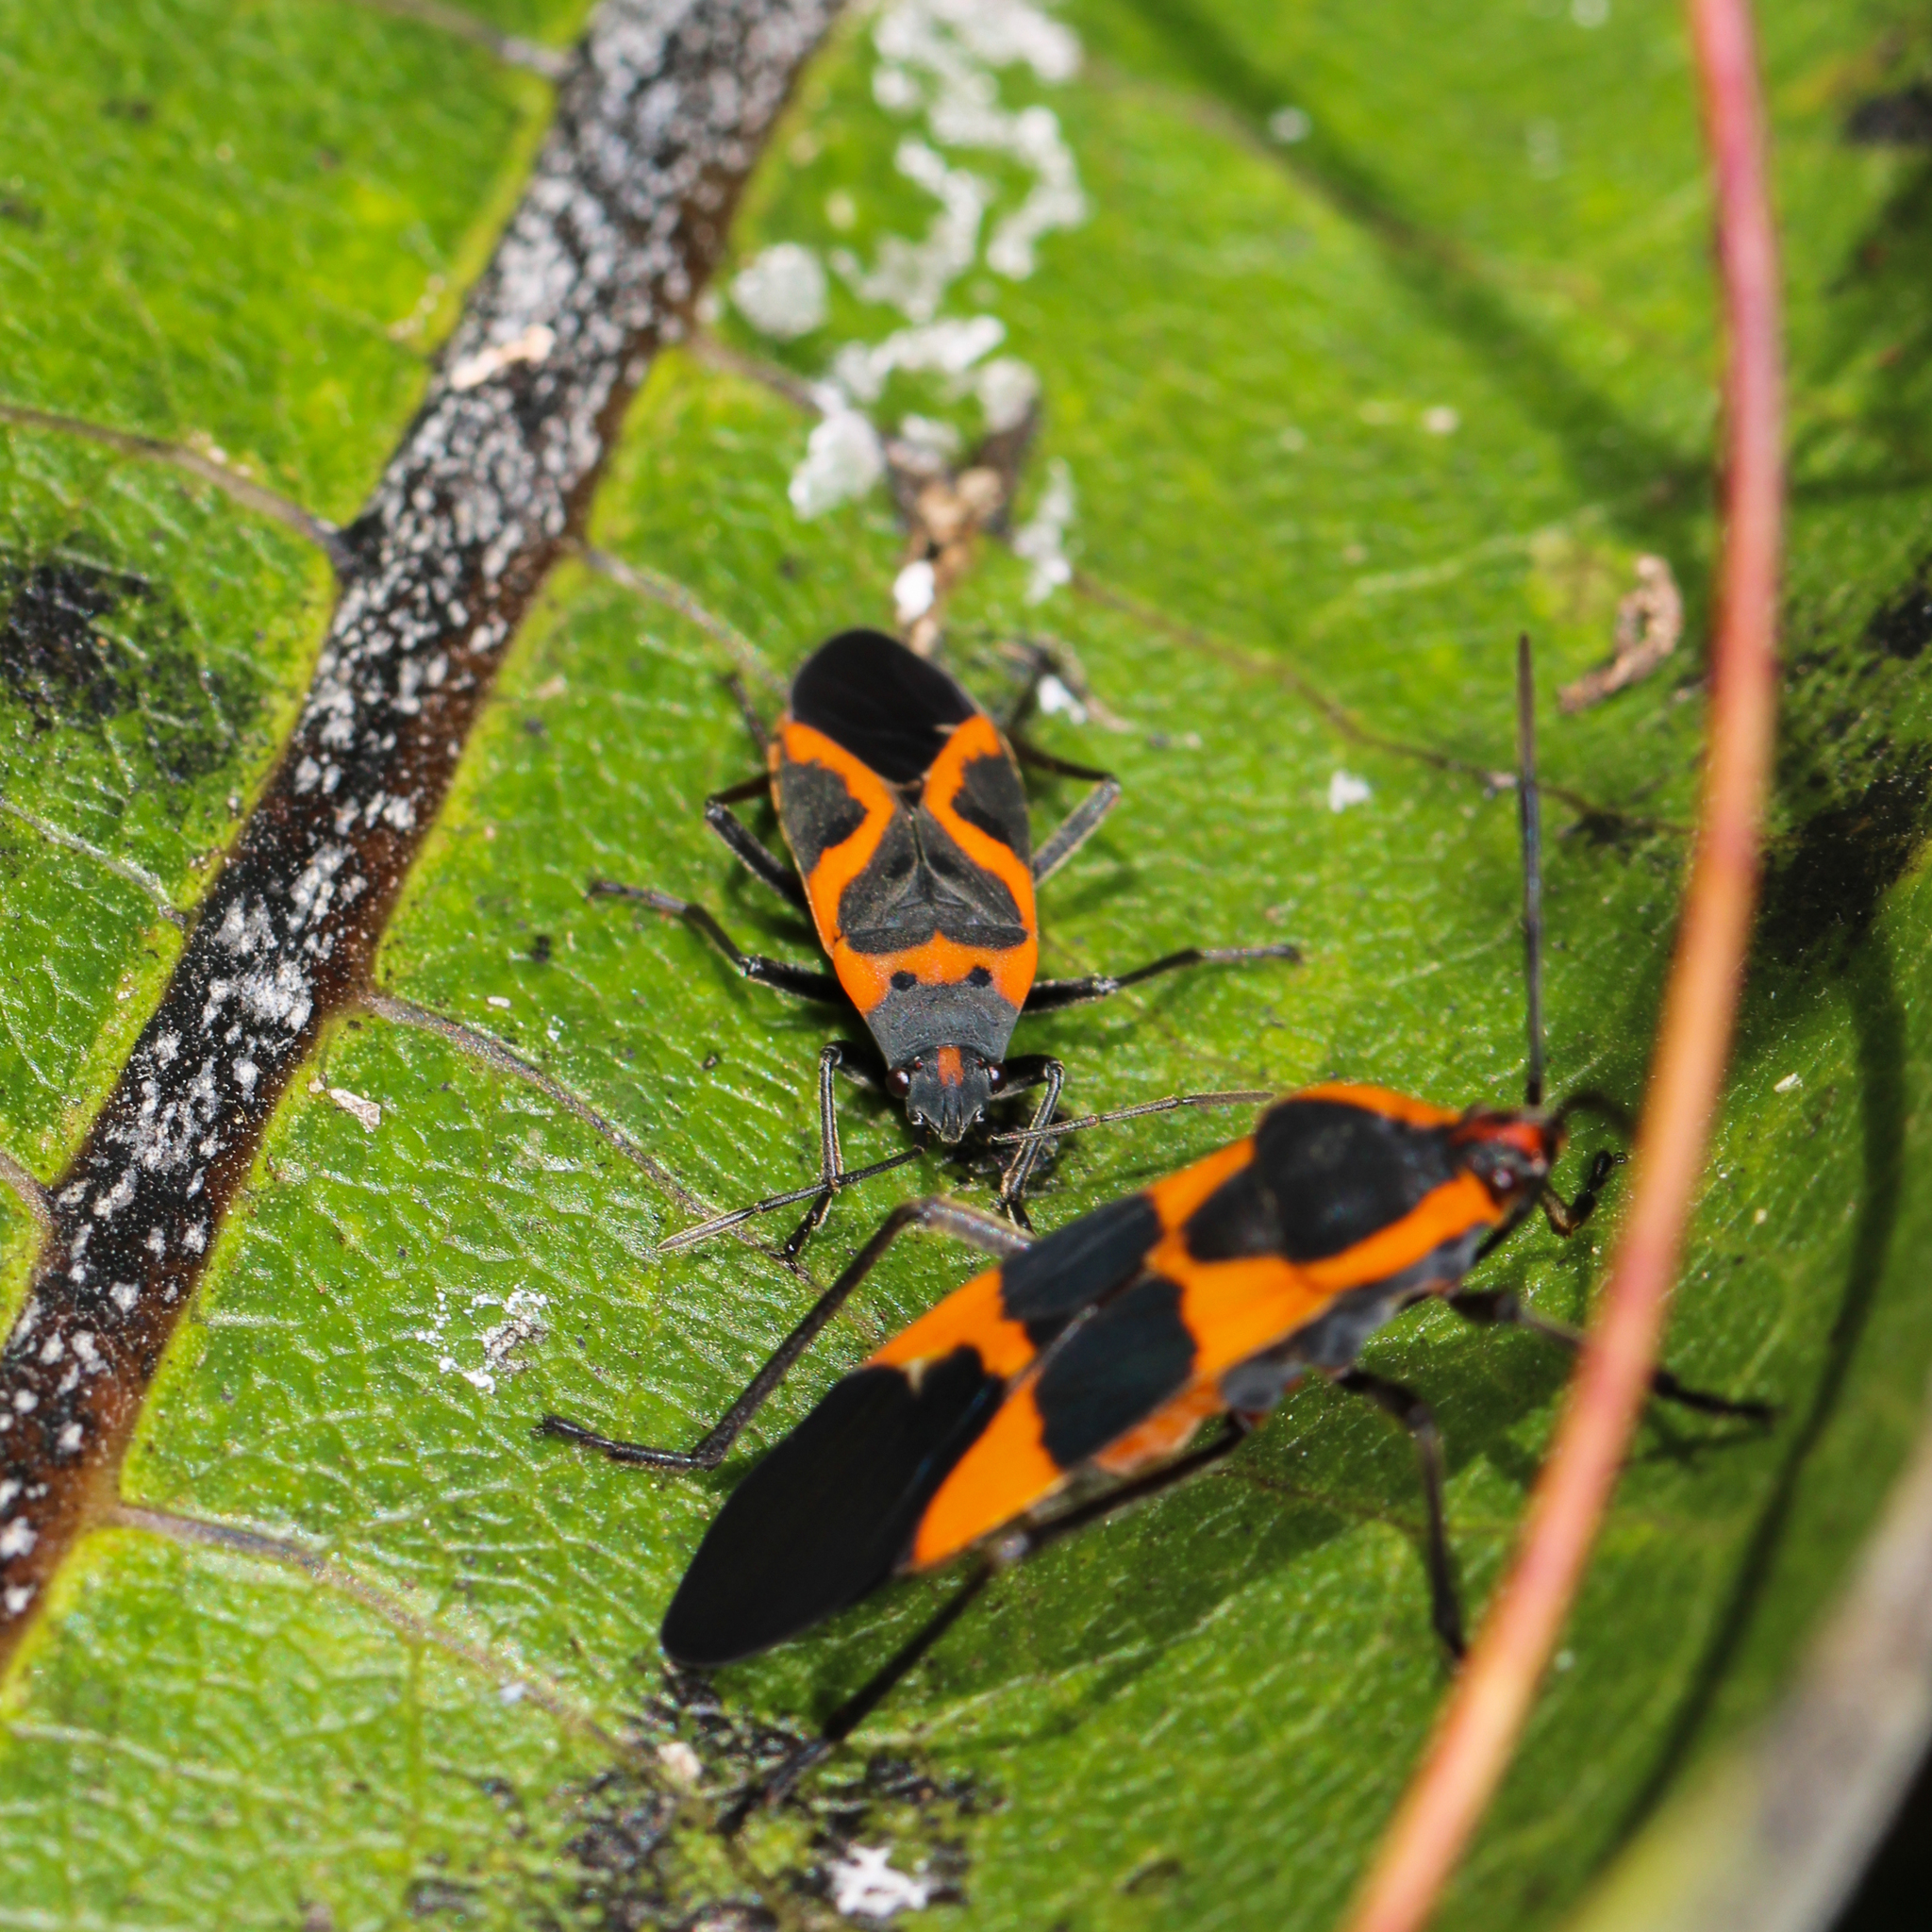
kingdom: Animalia
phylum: Arthropoda
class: Insecta
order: Hemiptera
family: Lygaeidae
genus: Lygaeus
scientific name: Lygaeus kalmii
